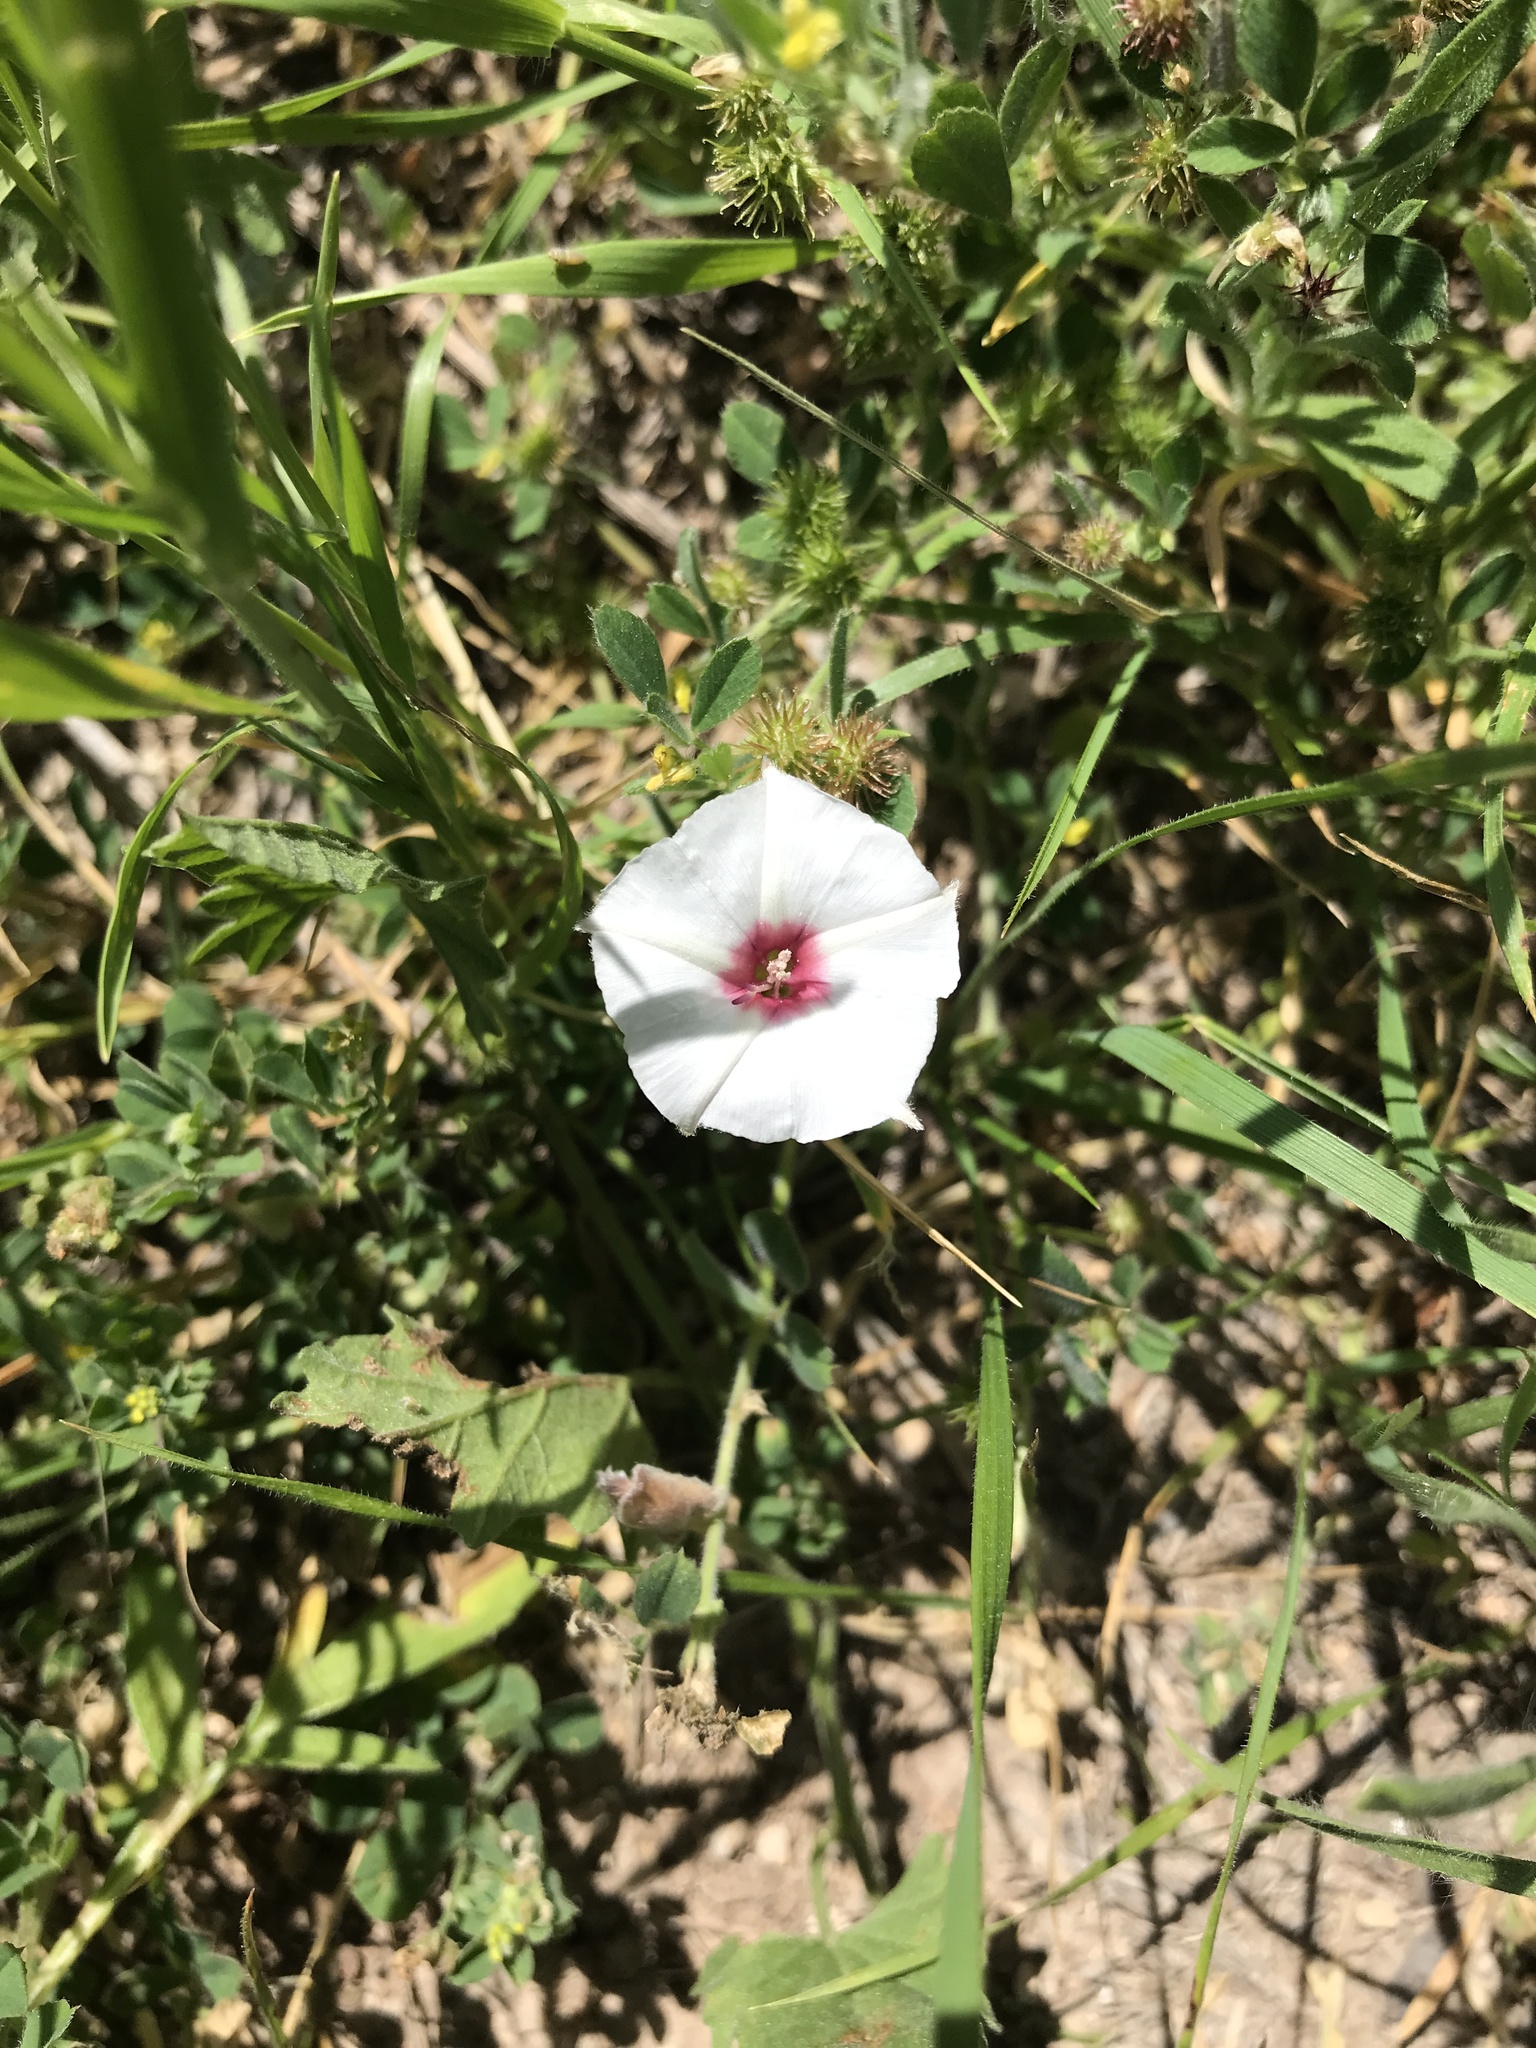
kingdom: Plantae
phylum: Tracheophyta
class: Magnoliopsida
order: Solanales
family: Convolvulaceae
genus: Convolvulus
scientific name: Convolvulus equitans
